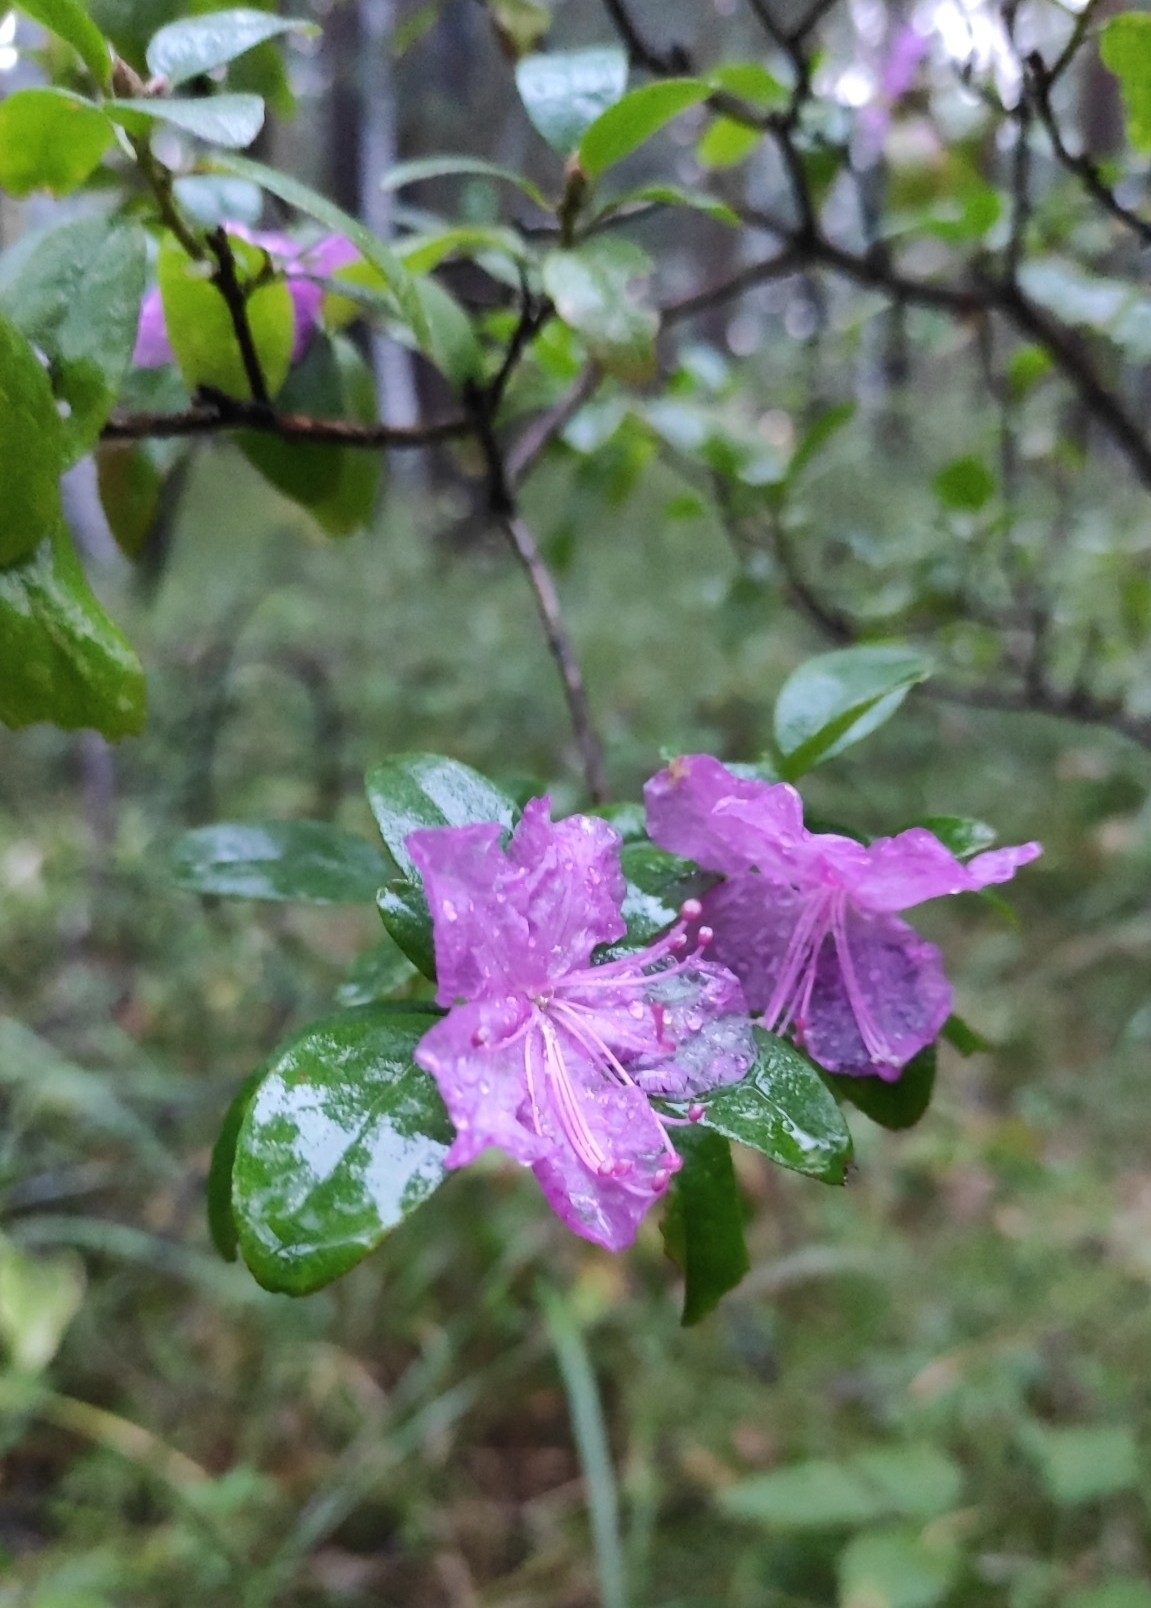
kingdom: Plantae
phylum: Tracheophyta
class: Magnoliopsida
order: Ericales
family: Ericaceae
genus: Rhododendron
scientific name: Rhododendron dauricum
